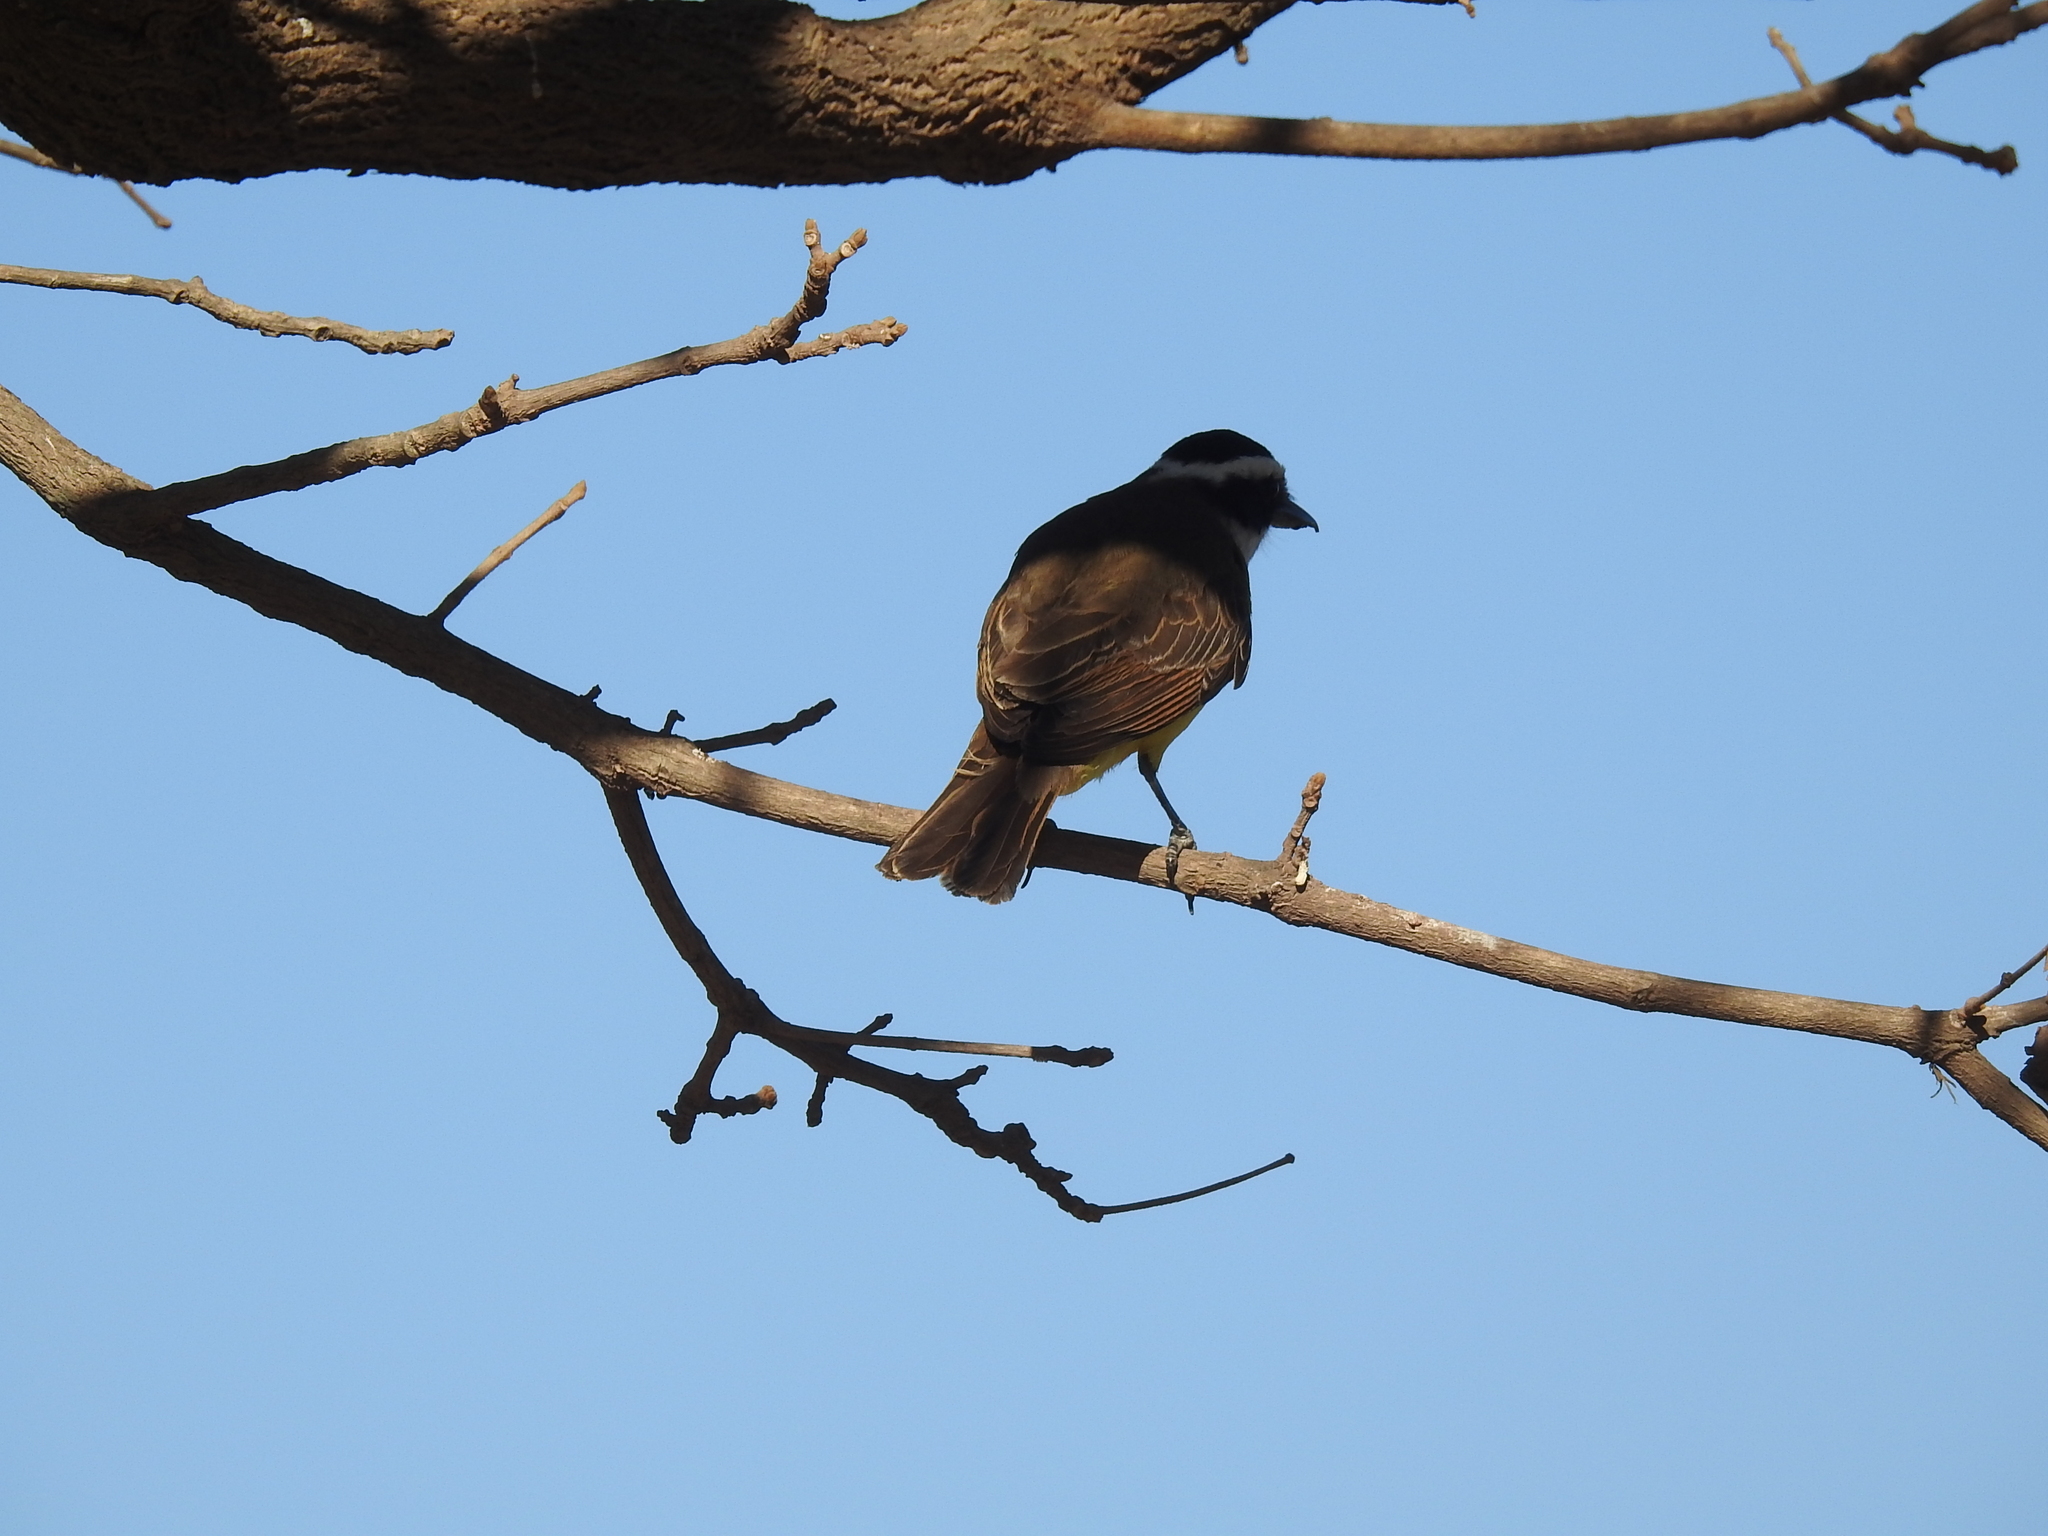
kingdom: Animalia
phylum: Chordata
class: Aves
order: Passeriformes
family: Tyrannidae
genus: Pitangus
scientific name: Pitangus sulphuratus
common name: Great kiskadee
